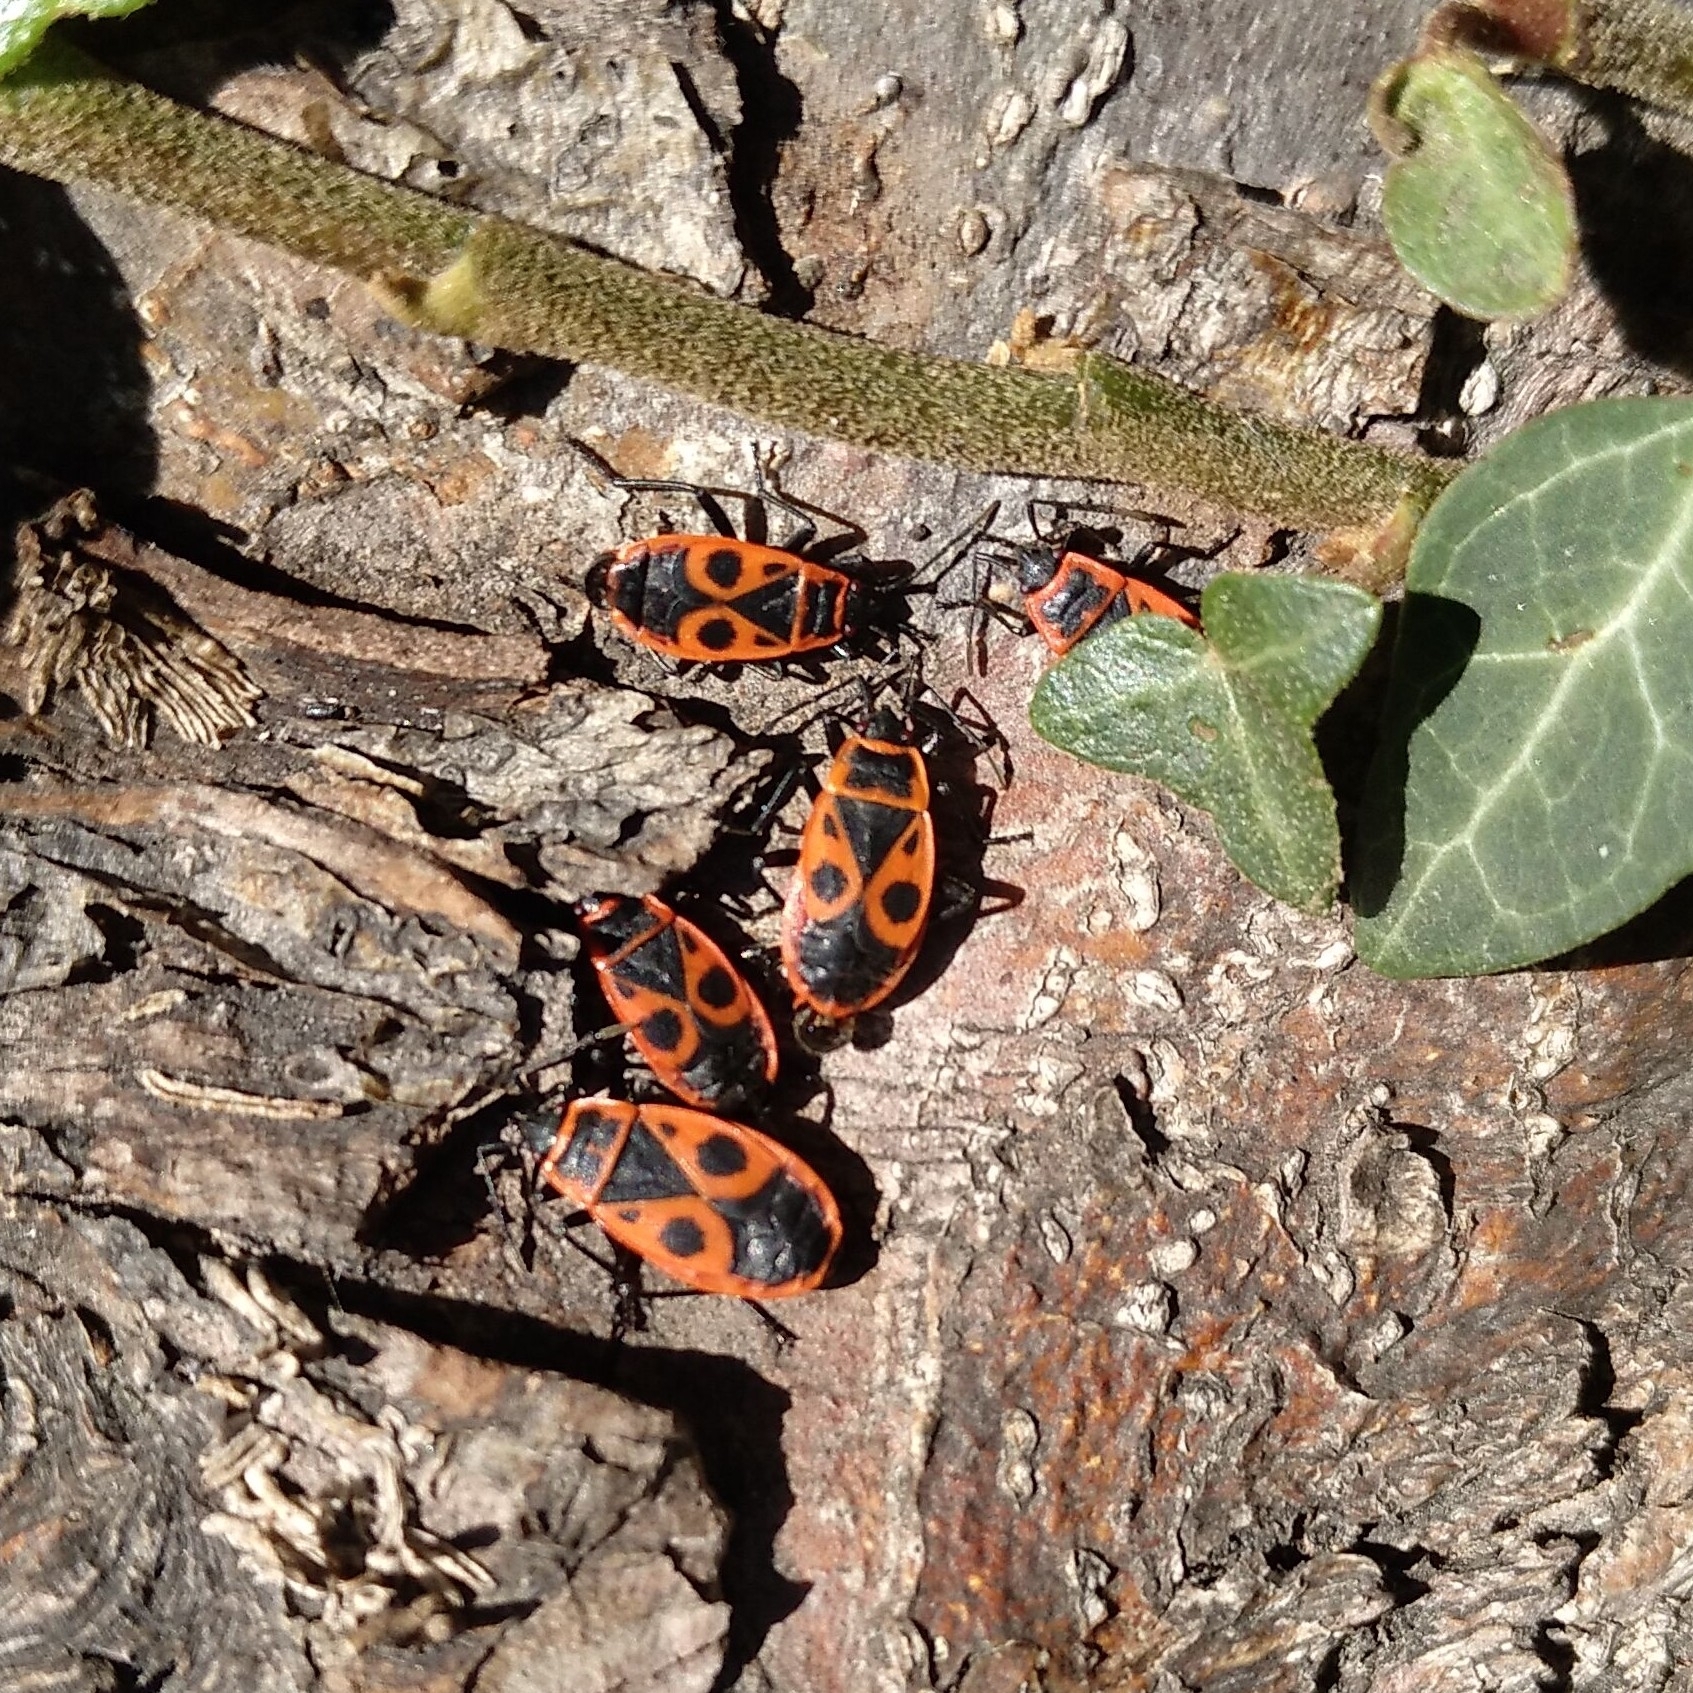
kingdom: Animalia
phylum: Arthropoda
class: Insecta
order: Hemiptera
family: Pyrrhocoridae
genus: Pyrrhocoris
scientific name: Pyrrhocoris apterus
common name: Firebug
